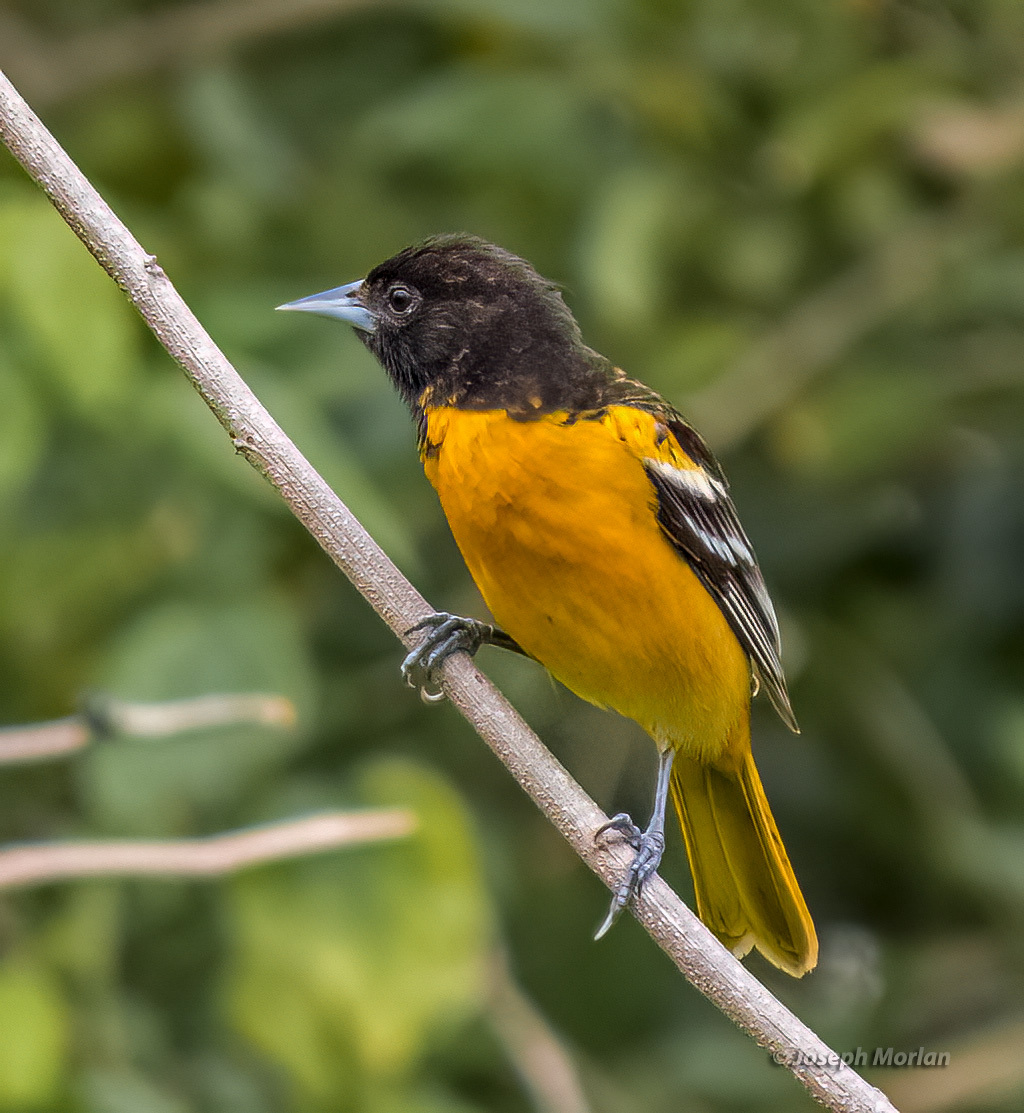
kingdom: Animalia
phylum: Chordata
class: Aves
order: Passeriformes
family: Icteridae
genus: Icterus
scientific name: Icterus galbula
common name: Baltimore oriole
